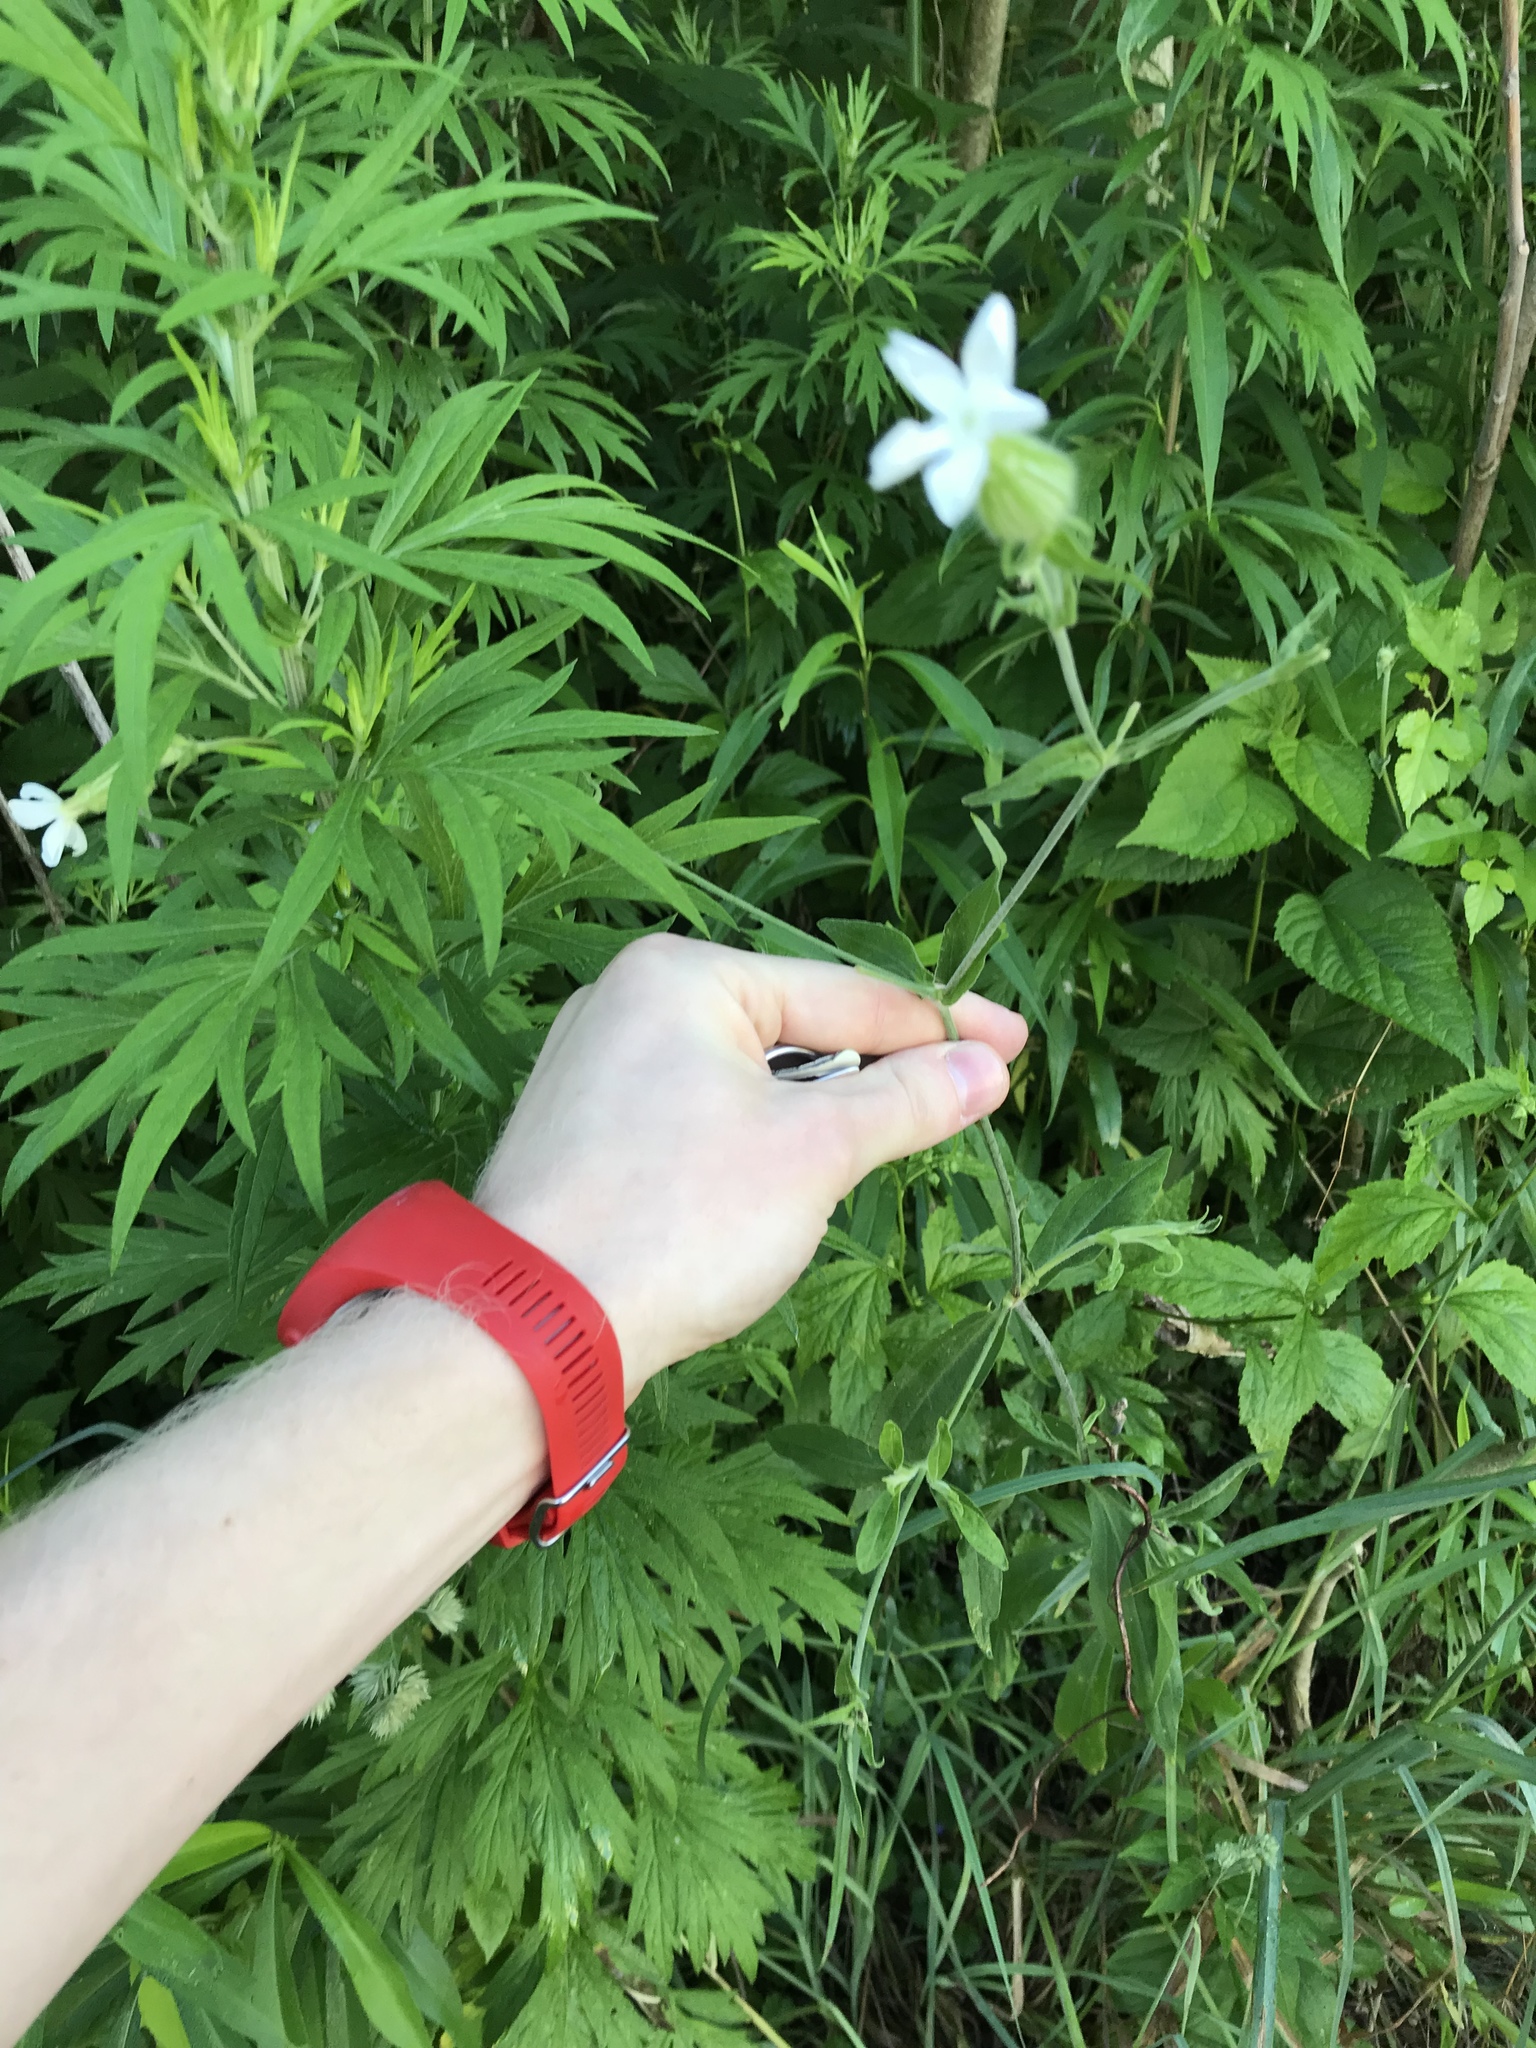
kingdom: Plantae
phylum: Tracheophyta
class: Magnoliopsida
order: Caryophyllales
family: Caryophyllaceae
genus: Silene
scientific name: Silene latifolia
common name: White campion
